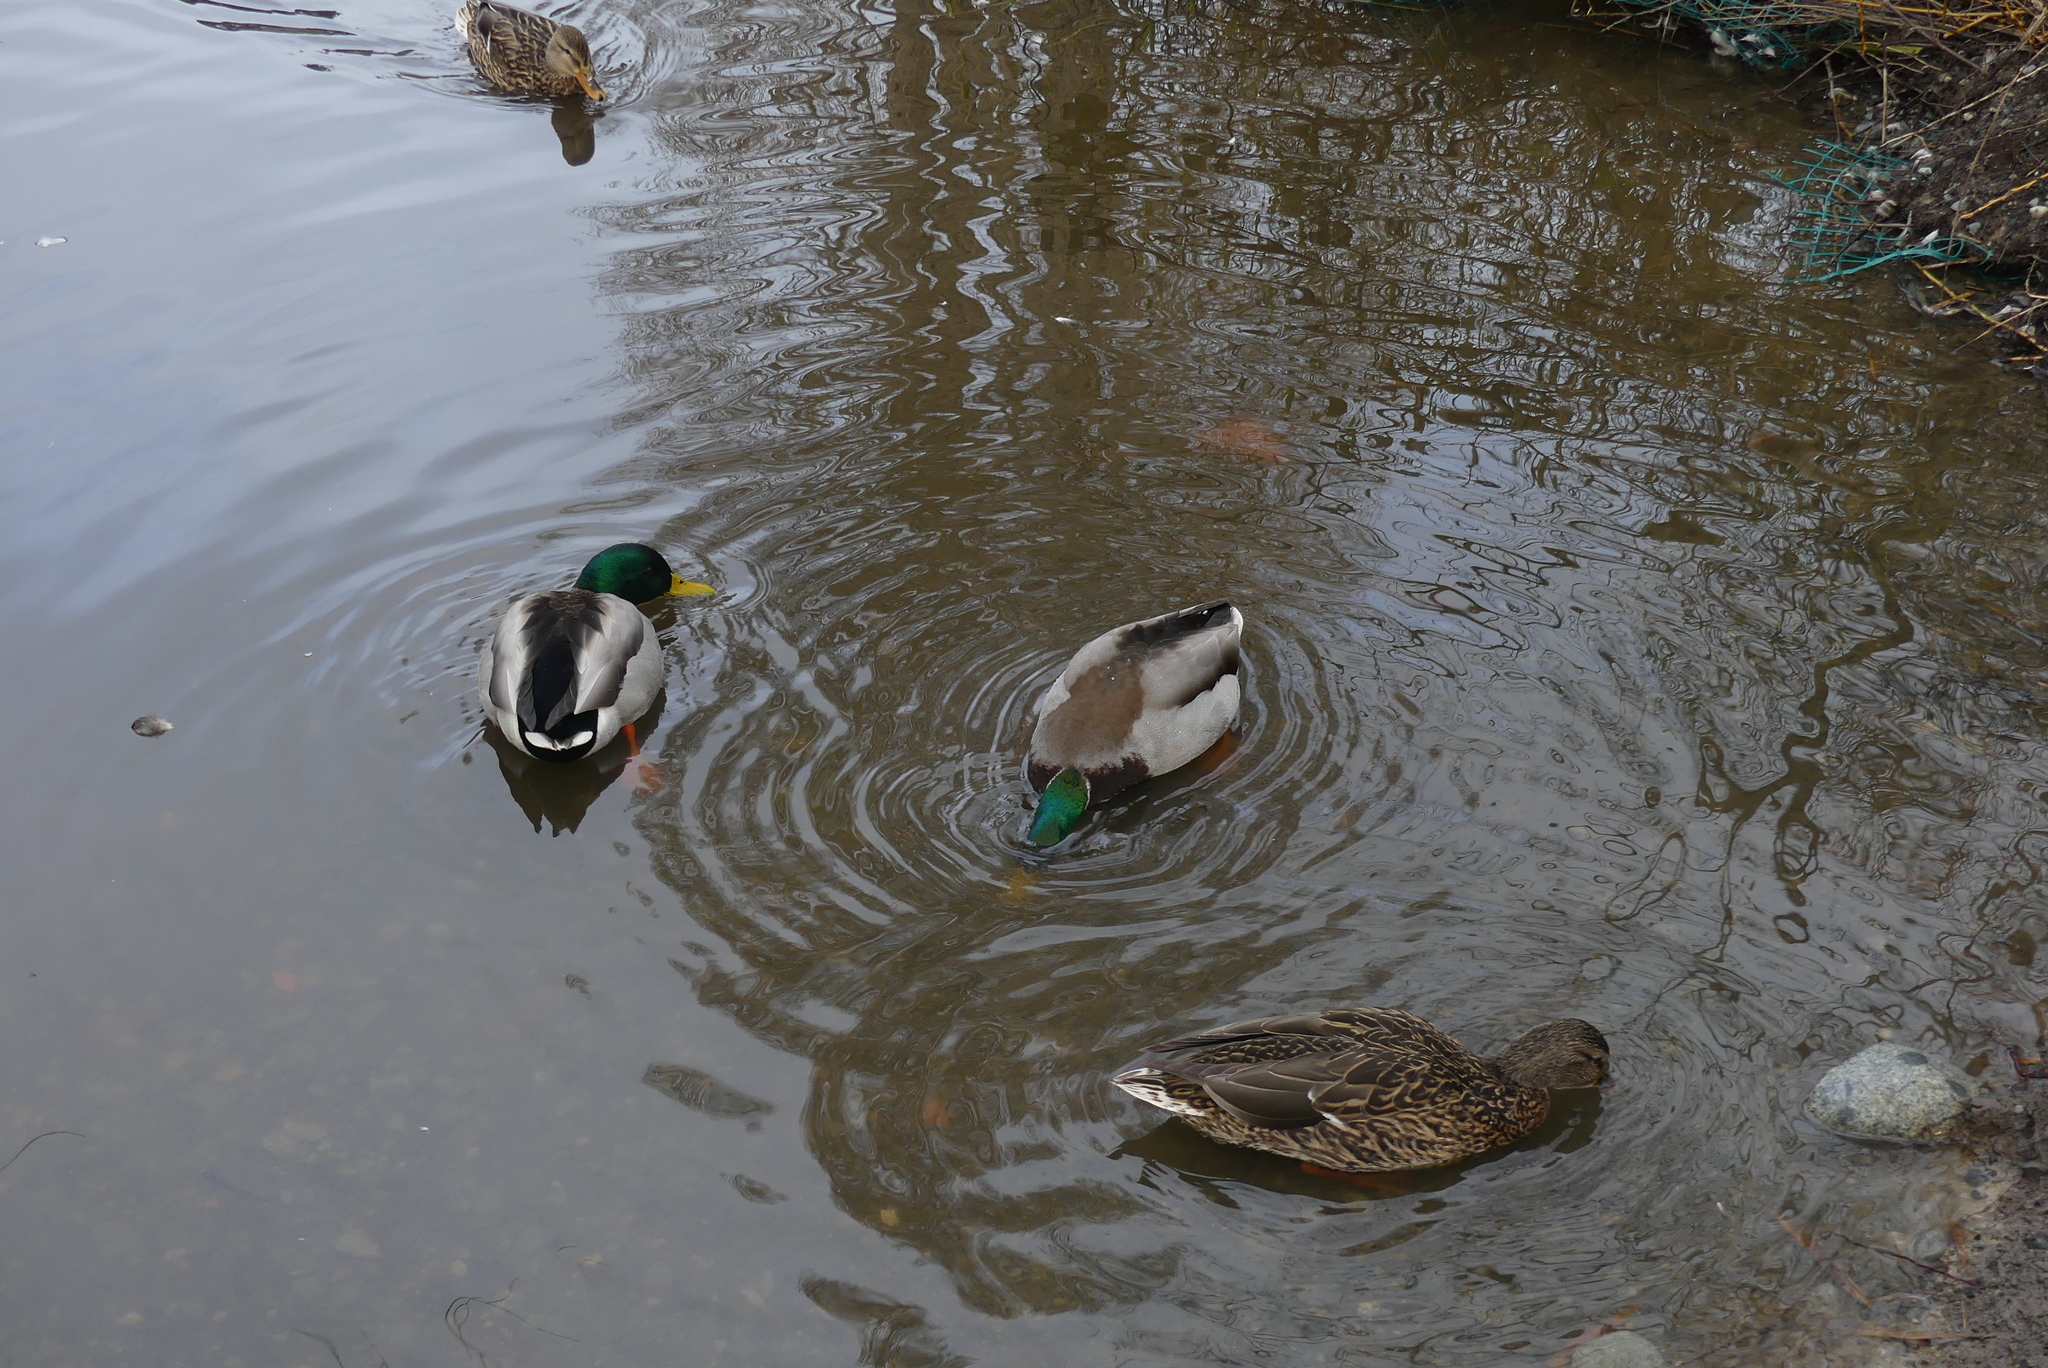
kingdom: Animalia
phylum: Chordata
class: Aves
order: Anseriformes
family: Anatidae
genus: Anas
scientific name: Anas platyrhynchos
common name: Mallard
